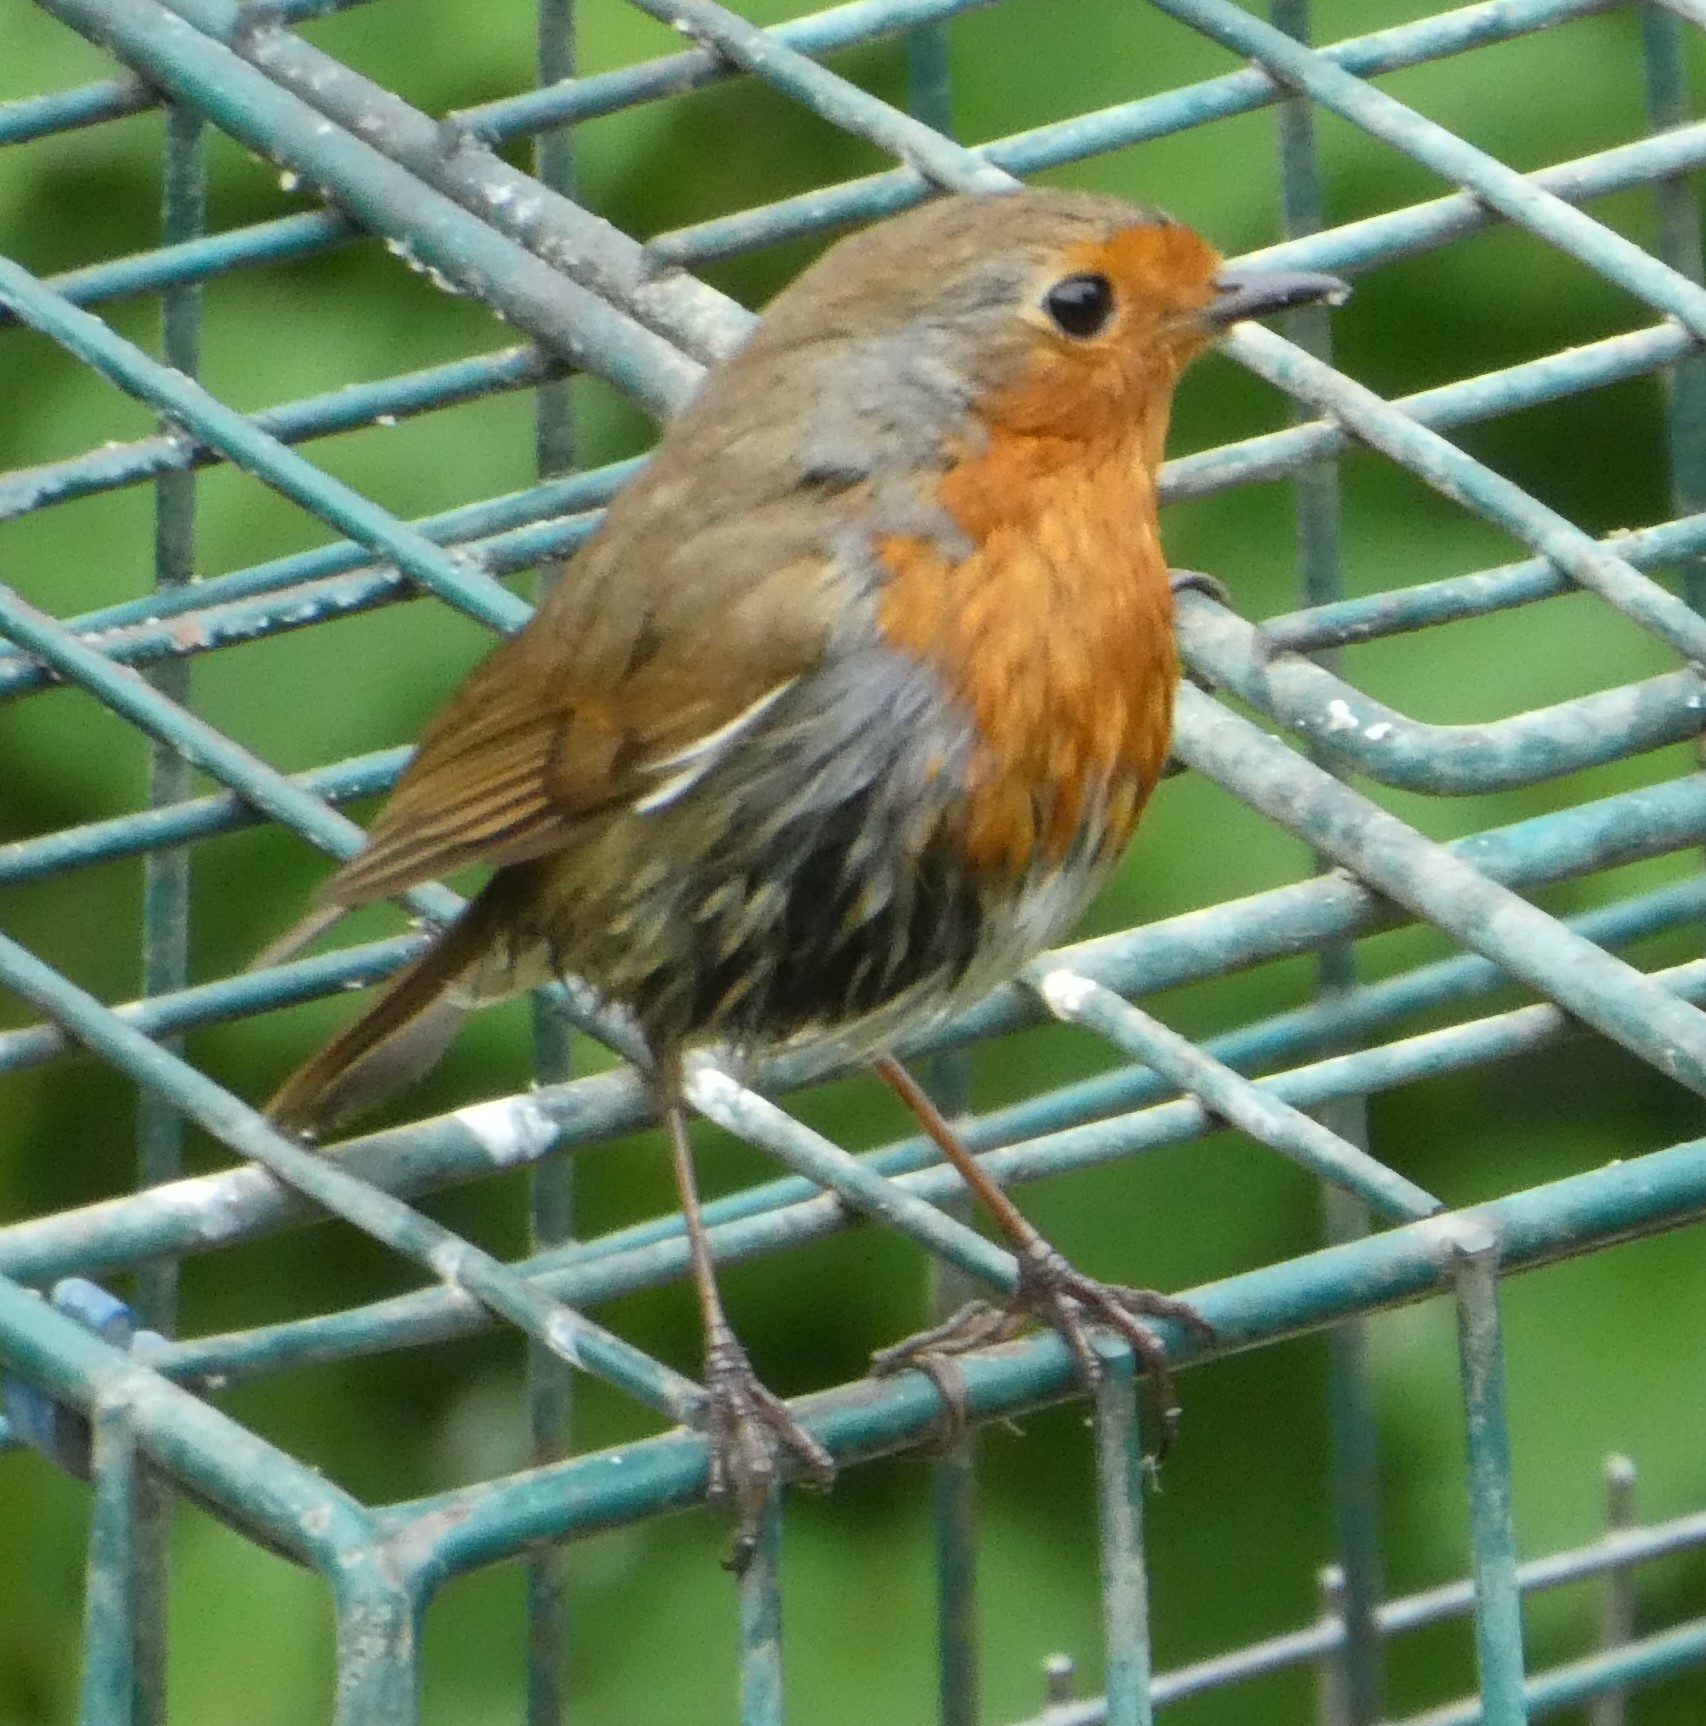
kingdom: Animalia
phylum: Chordata
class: Aves
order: Passeriformes
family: Muscicapidae
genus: Erithacus
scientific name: Erithacus rubecula
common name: European robin
